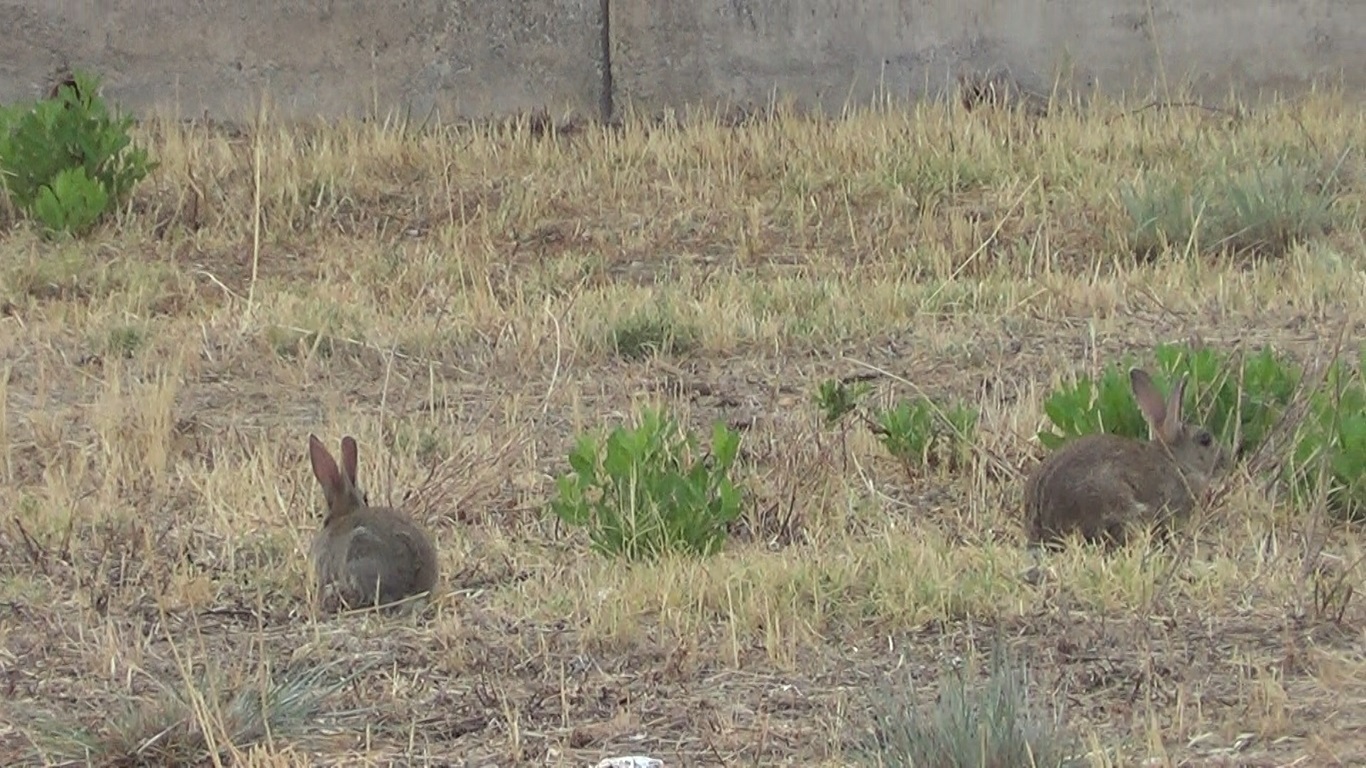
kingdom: Animalia
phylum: Chordata
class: Mammalia
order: Lagomorpha
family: Leporidae
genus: Oryctolagus
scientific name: Oryctolagus cuniculus
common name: European rabbit
